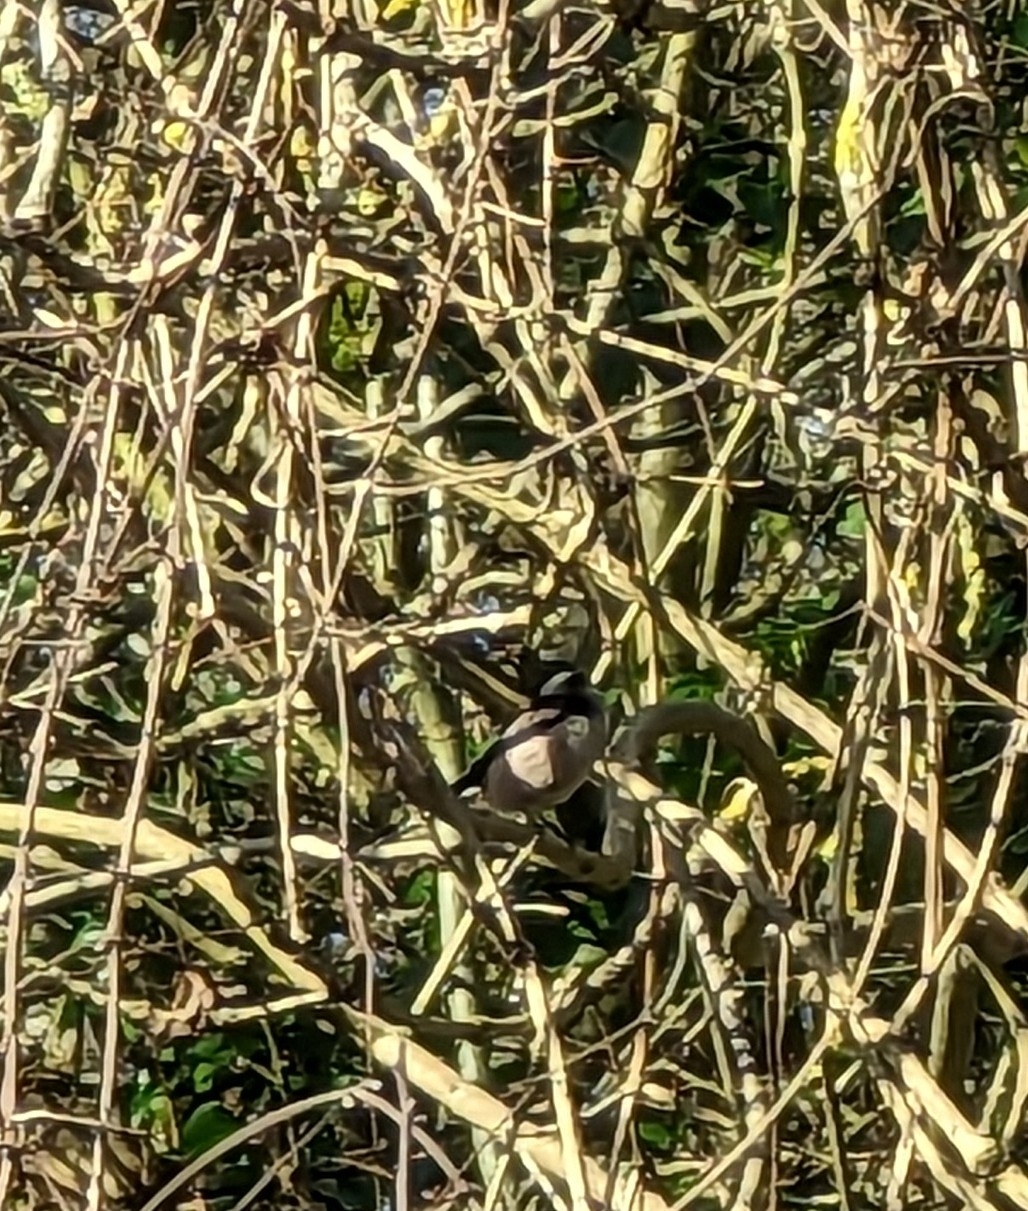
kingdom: Animalia
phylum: Chordata
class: Aves
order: Passeriformes
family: Aegithalidae
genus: Aegithalos
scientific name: Aegithalos caudatus
